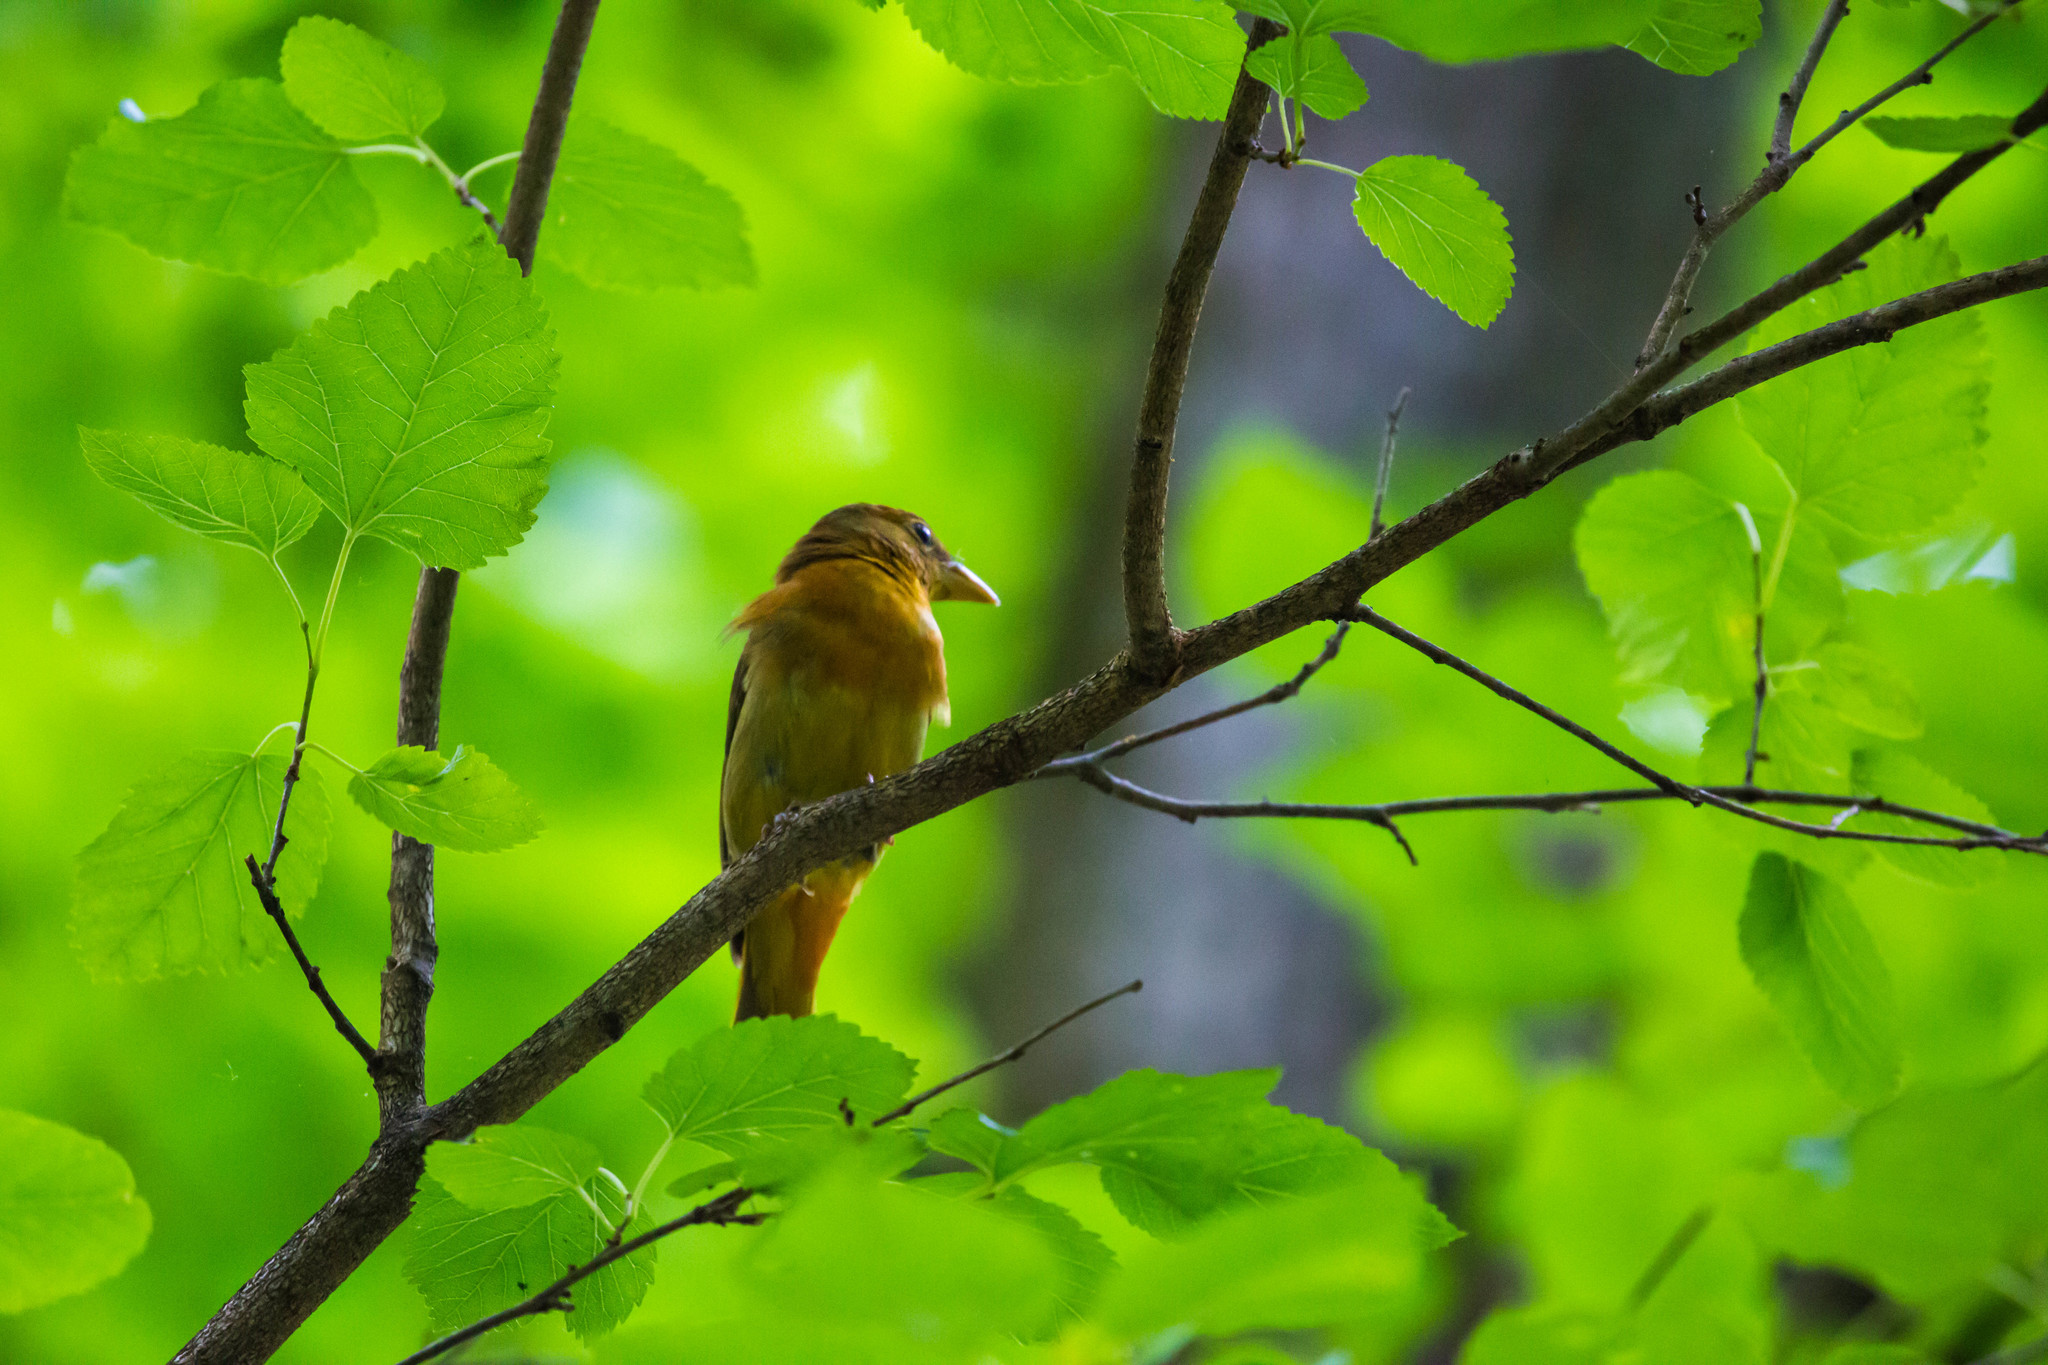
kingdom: Animalia
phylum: Chordata
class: Aves
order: Passeriformes
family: Cardinalidae
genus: Piranga
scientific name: Piranga rubra
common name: Summer tanager
